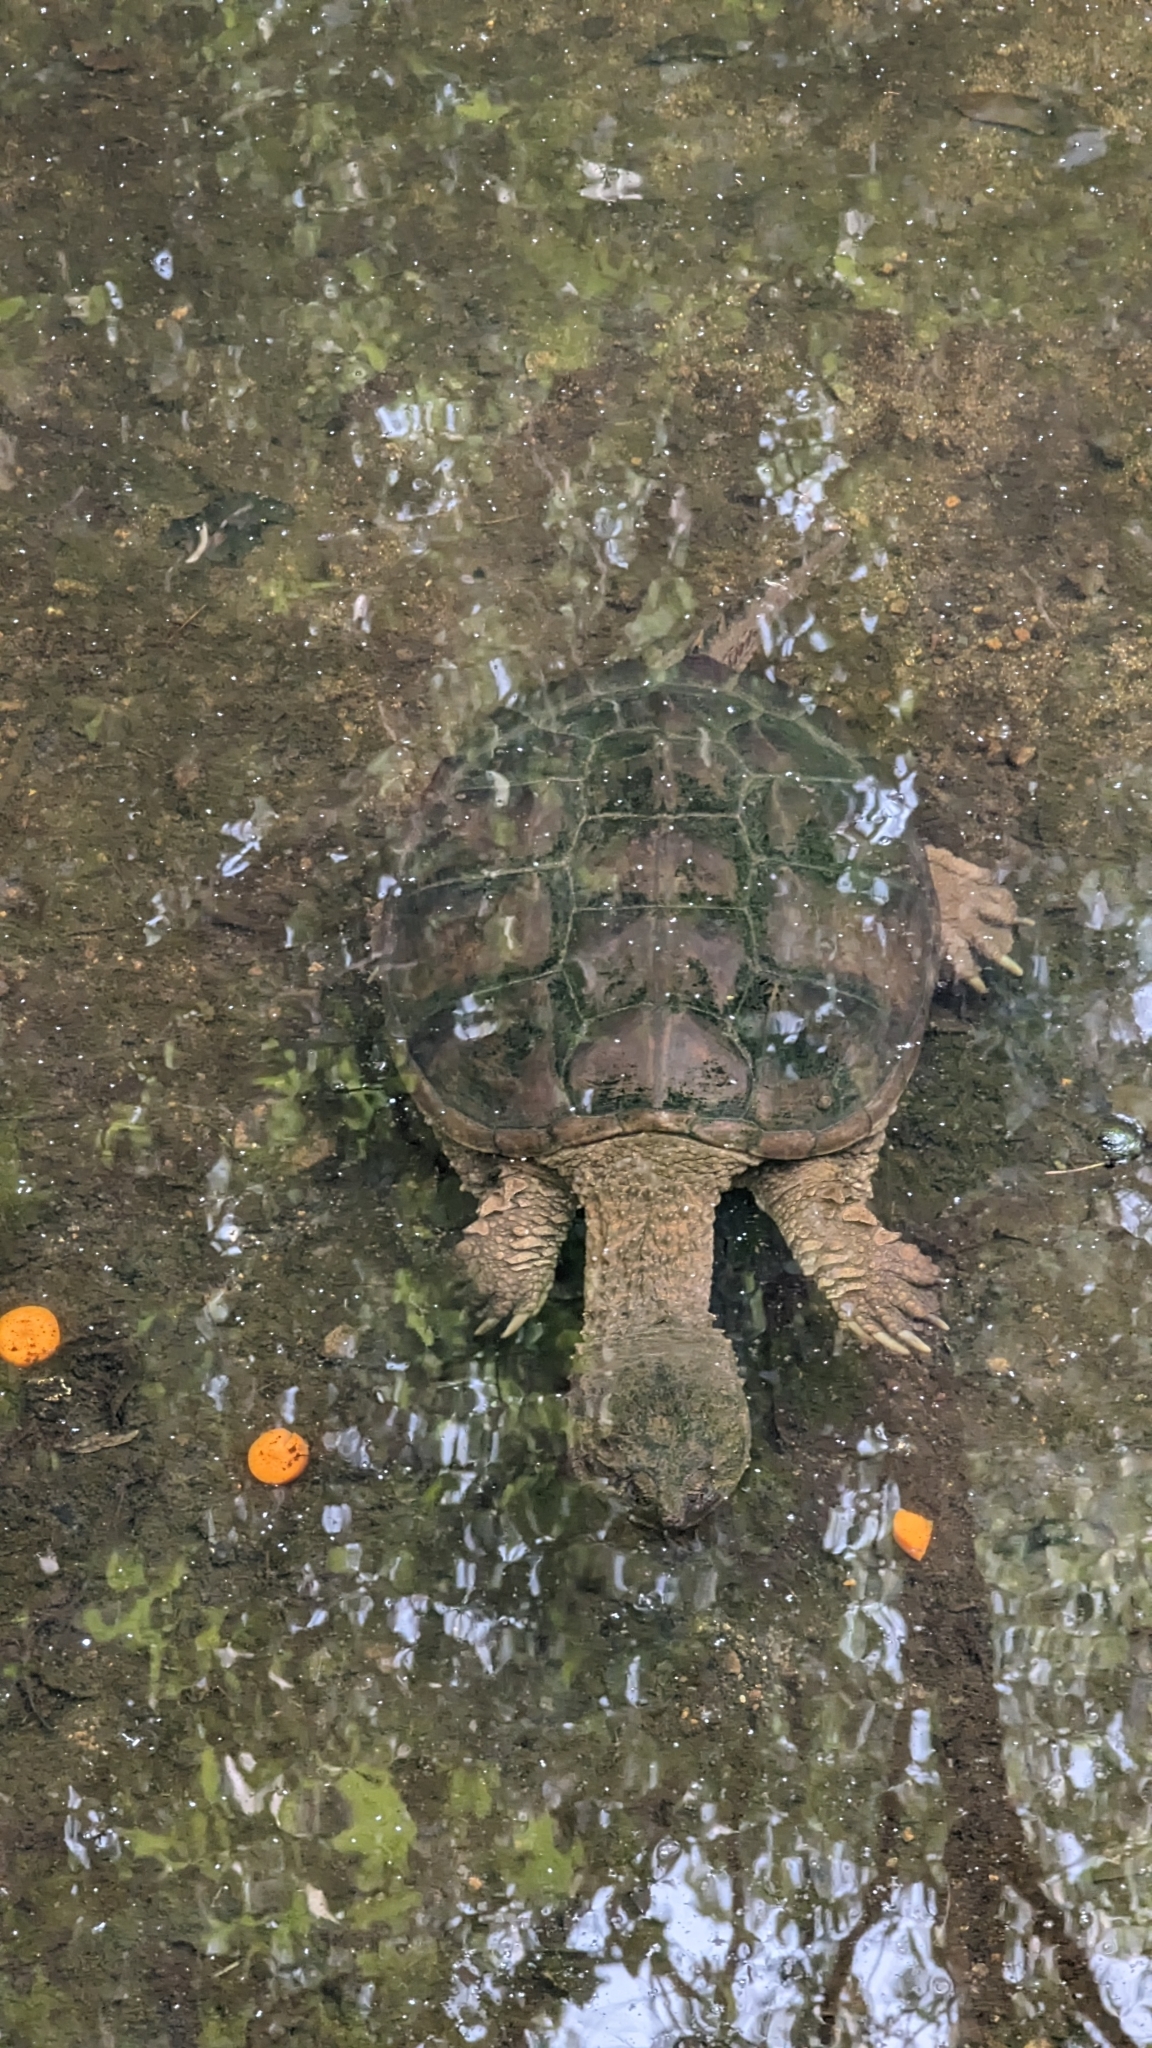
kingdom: Animalia
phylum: Chordata
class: Testudines
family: Chelydridae
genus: Chelydra
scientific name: Chelydra serpentina
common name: Common snapping turtle
